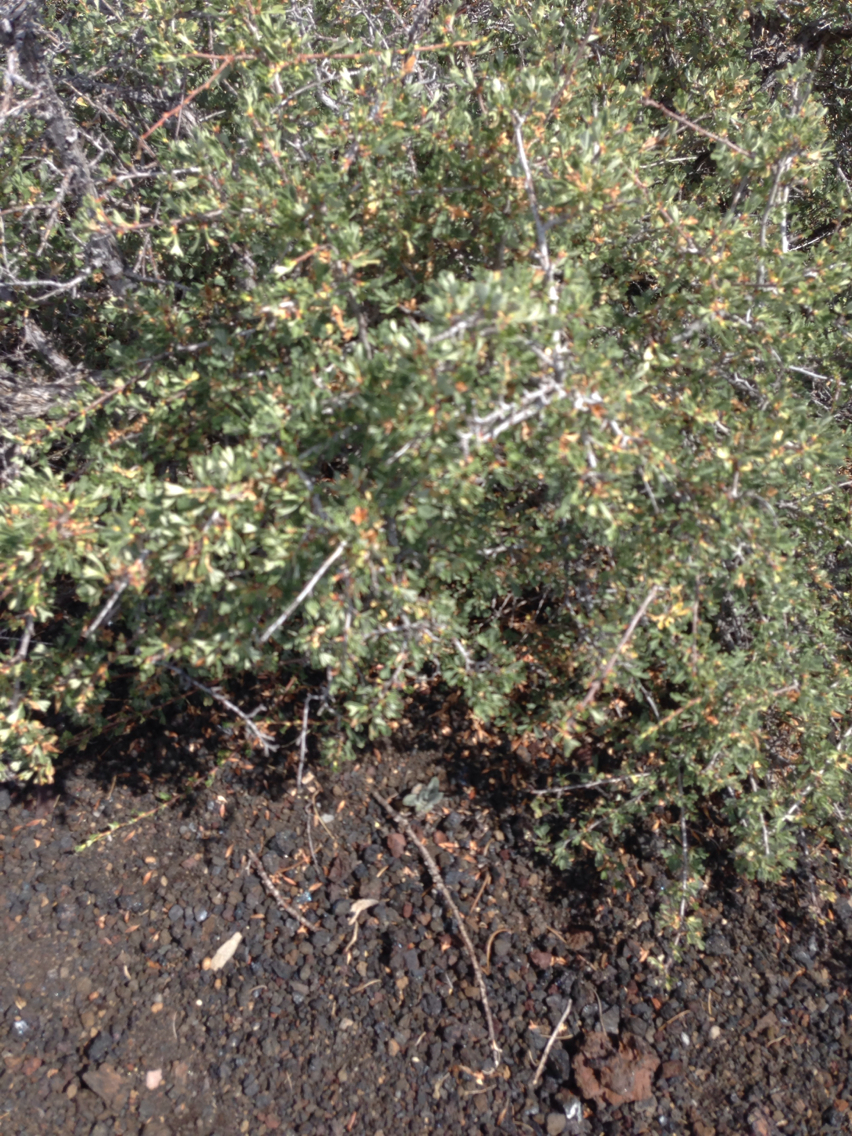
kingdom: Plantae
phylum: Tracheophyta
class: Magnoliopsida
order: Rosales
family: Rosaceae
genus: Purshia
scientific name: Purshia tridentata
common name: Antelope bitterbrush
